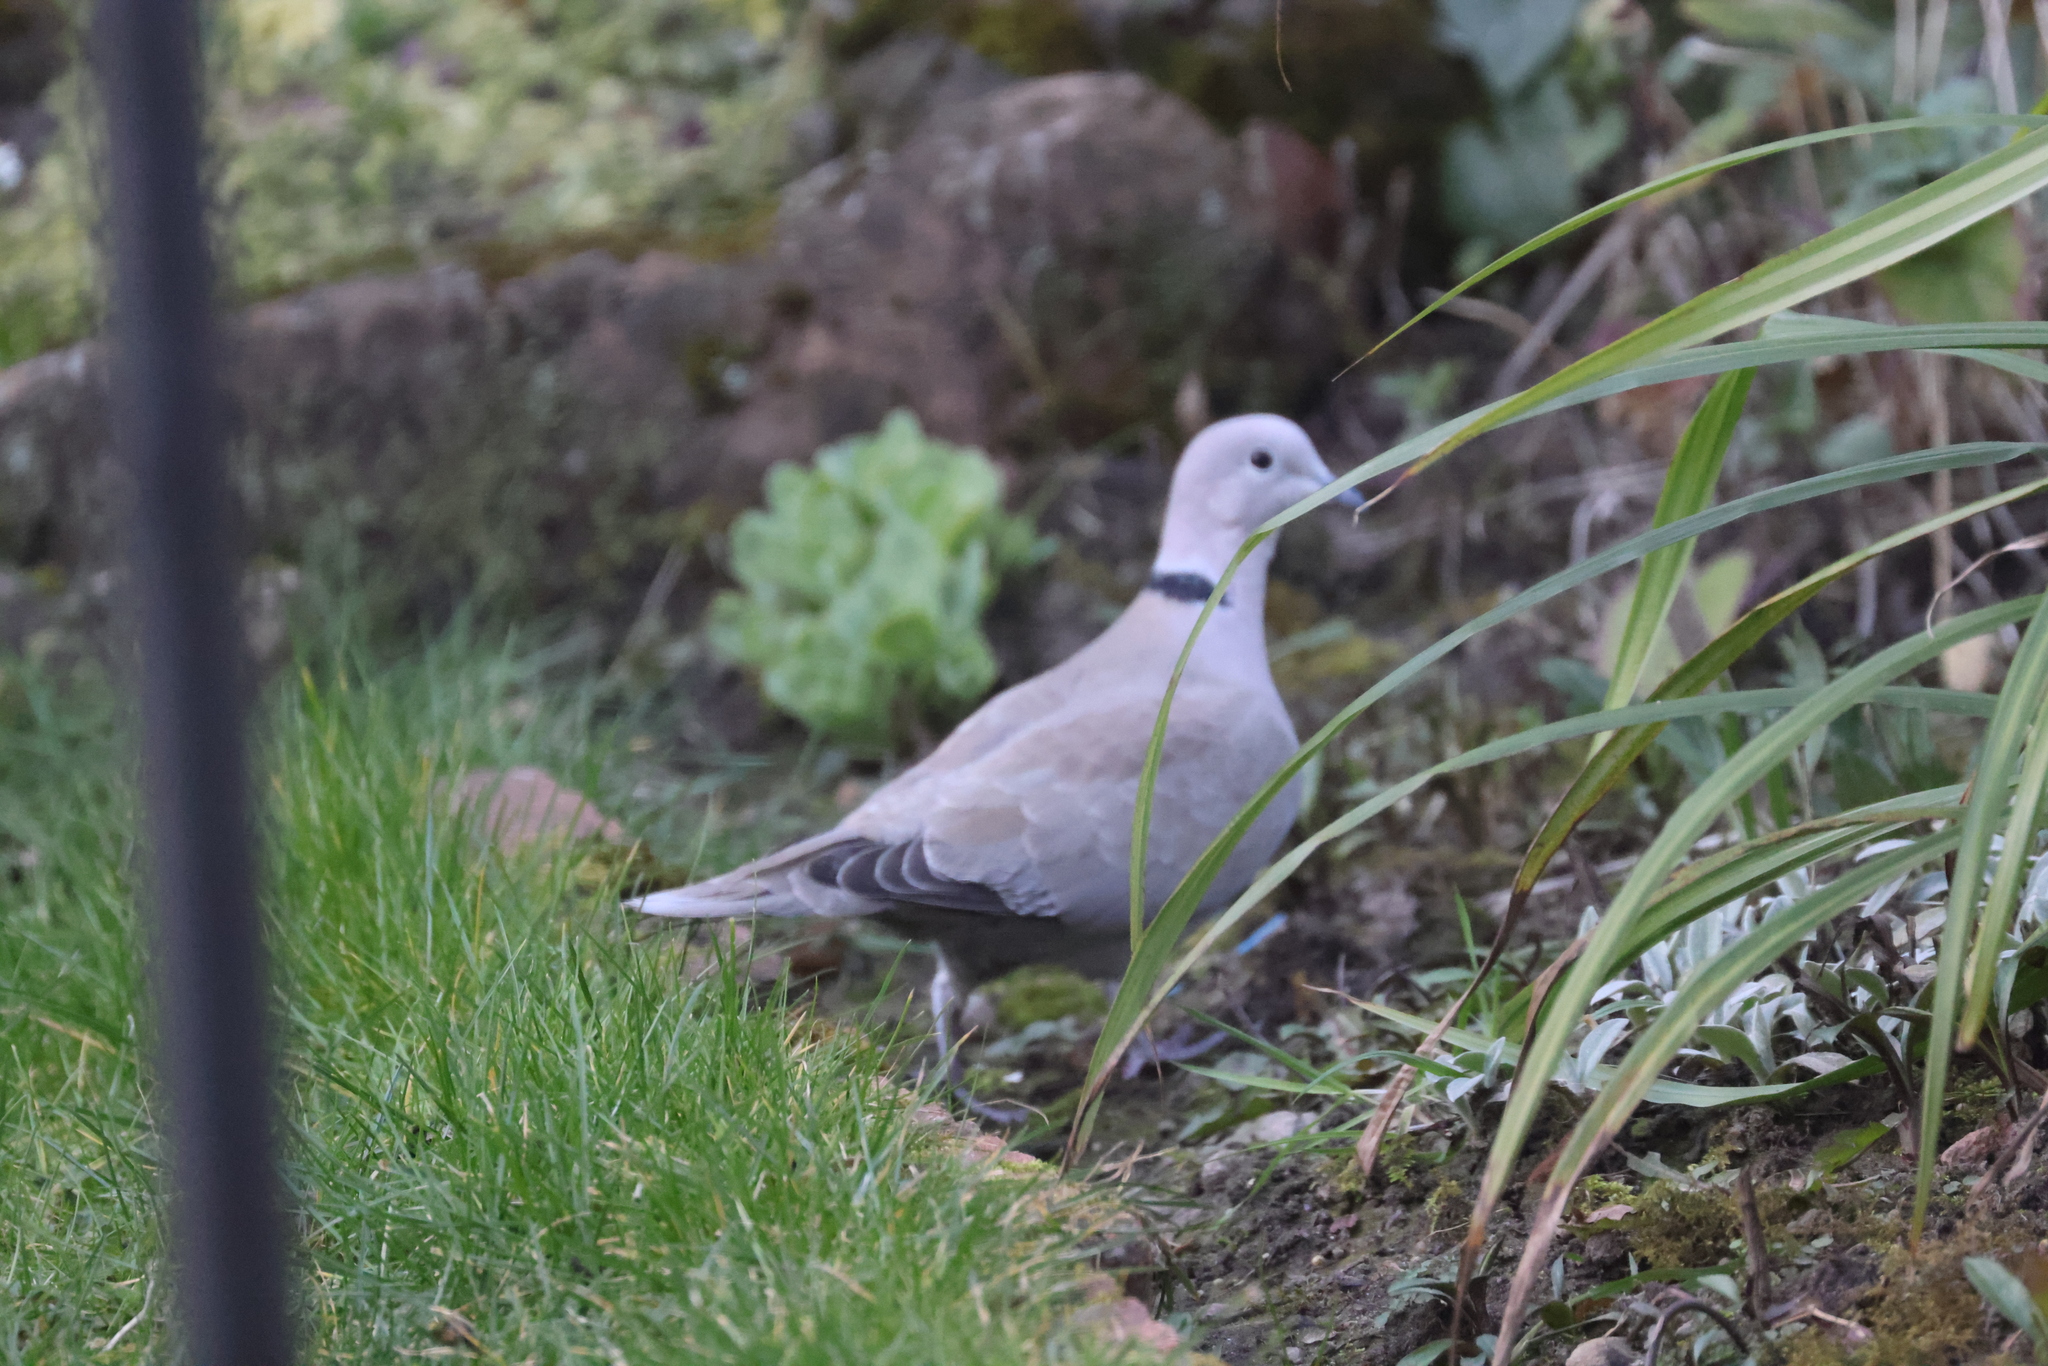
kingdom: Animalia
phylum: Chordata
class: Aves
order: Columbiformes
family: Columbidae
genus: Streptopelia
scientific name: Streptopelia decaocto
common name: Eurasian collared dove
